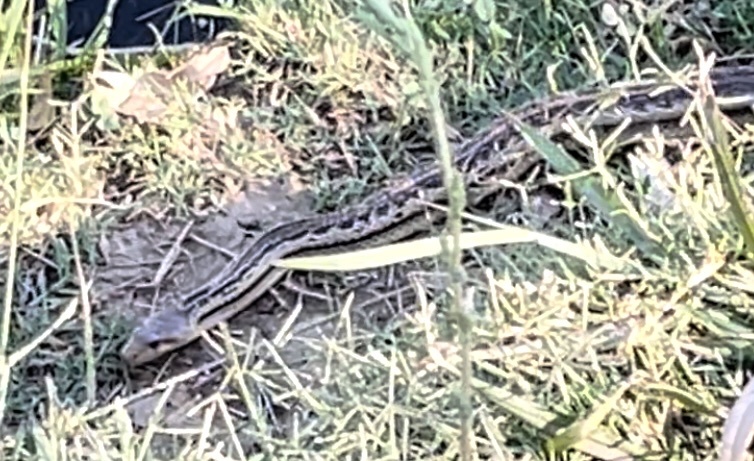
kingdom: Animalia
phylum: Chordata
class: Squamata
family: Colubridae
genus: Pituophis
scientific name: Pituophis catenifer
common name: Gopher snake
